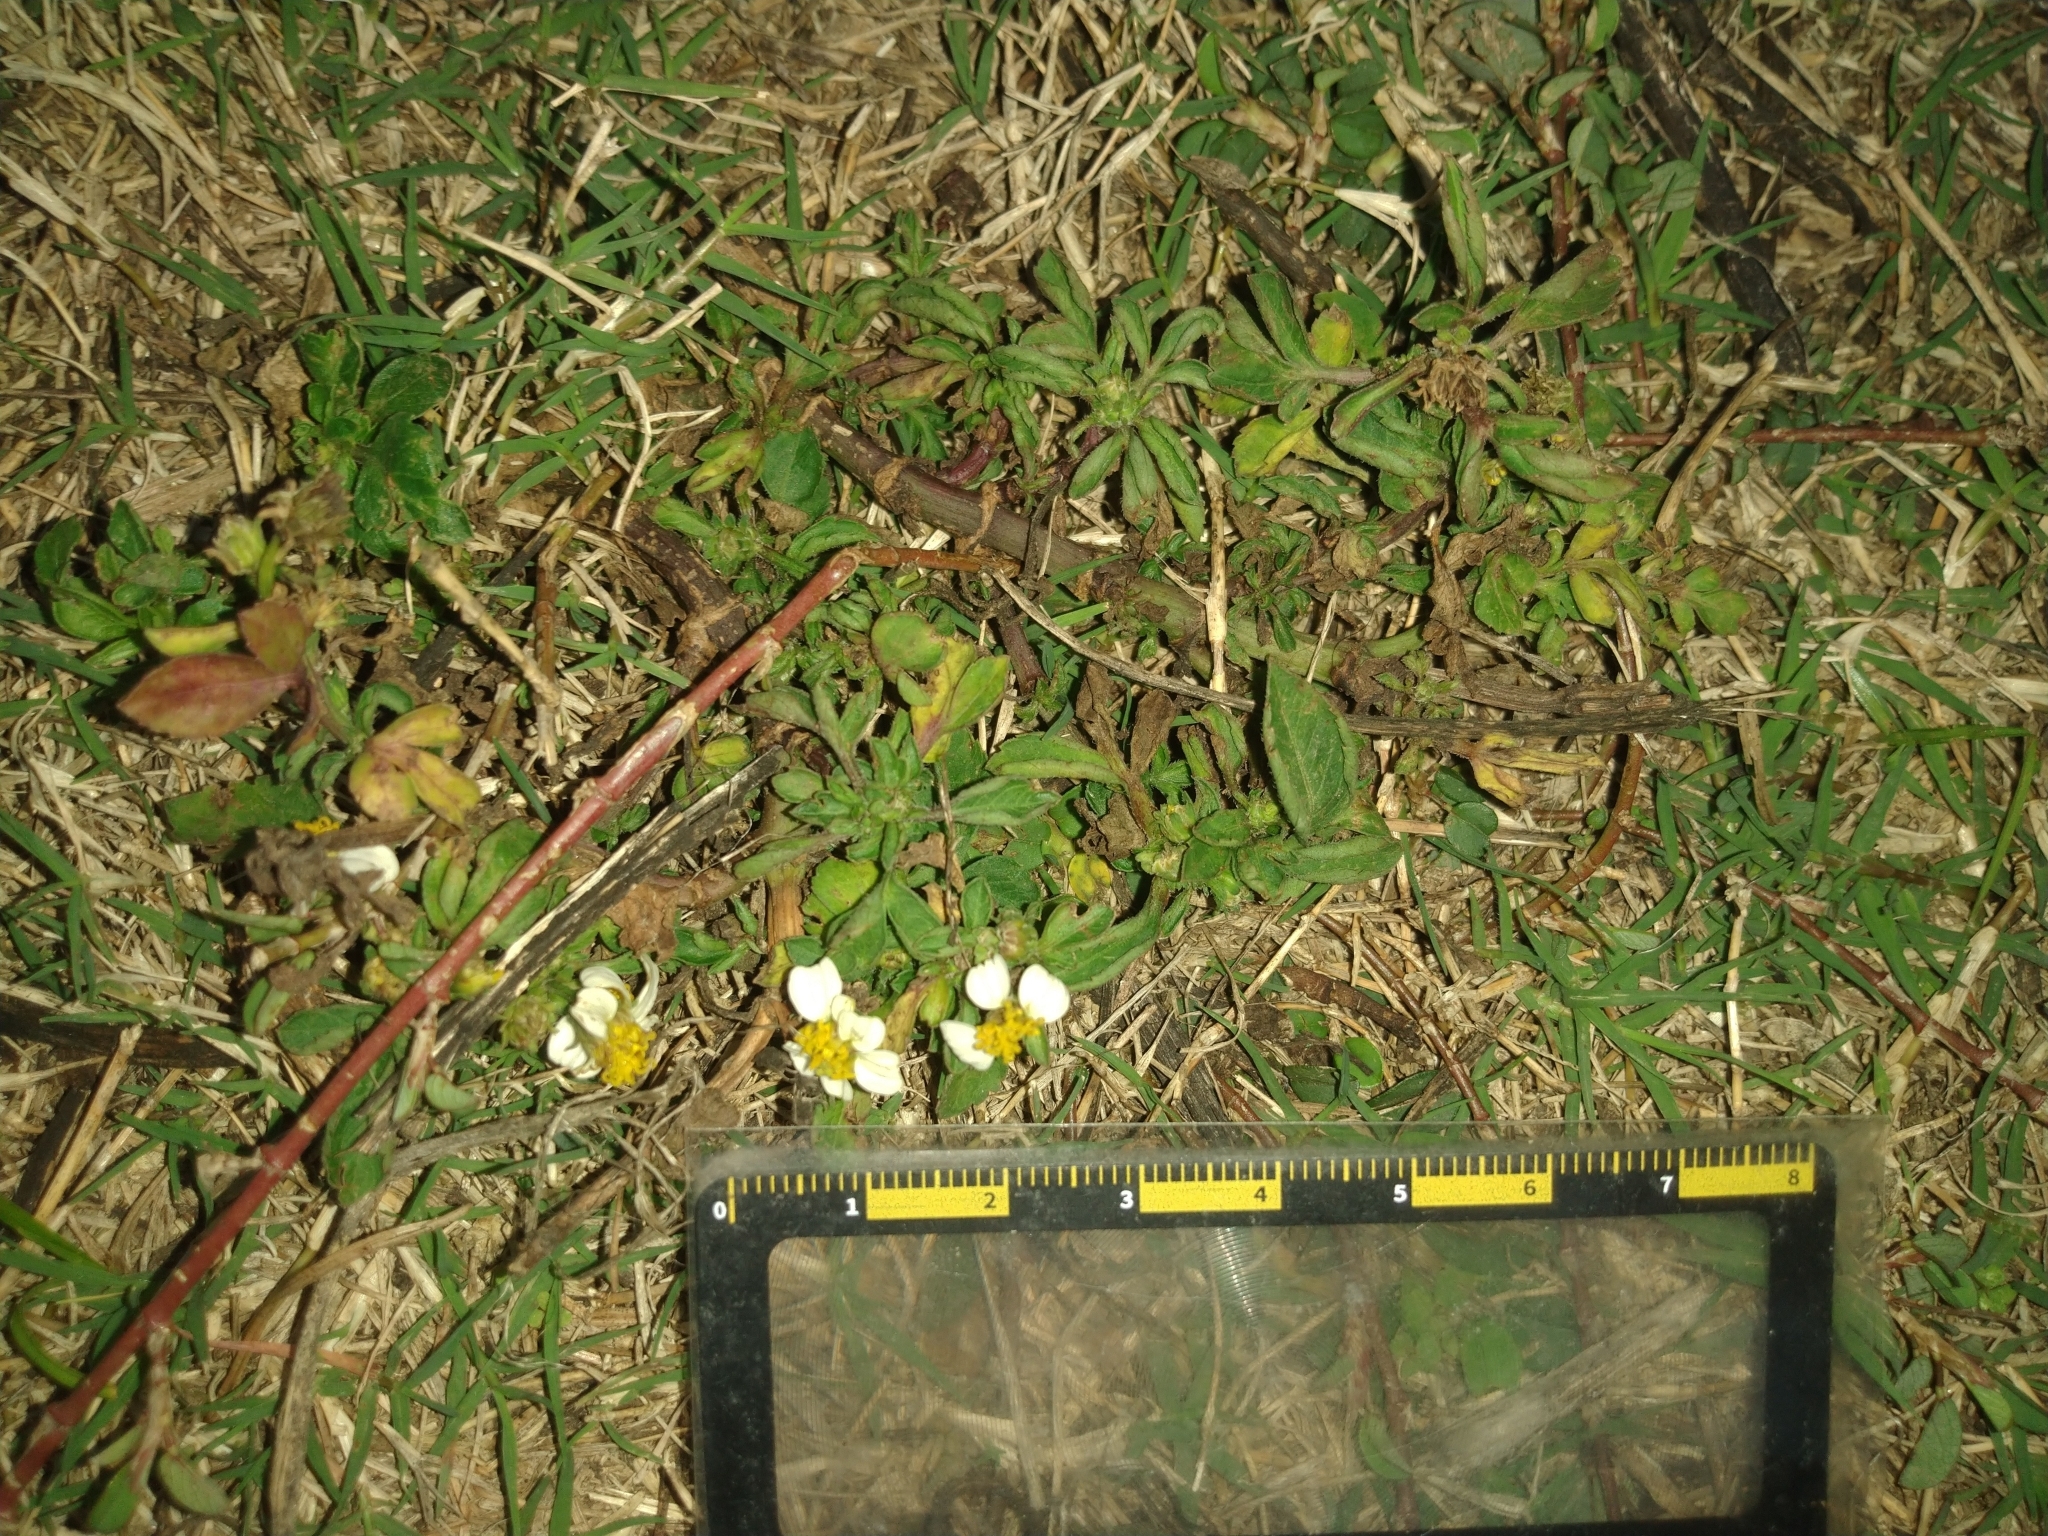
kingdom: Plantae
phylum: Tracheophyta
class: Magnoliopsida
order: Asterales
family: Asteraceae
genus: Bidens
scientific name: Bidens alba
